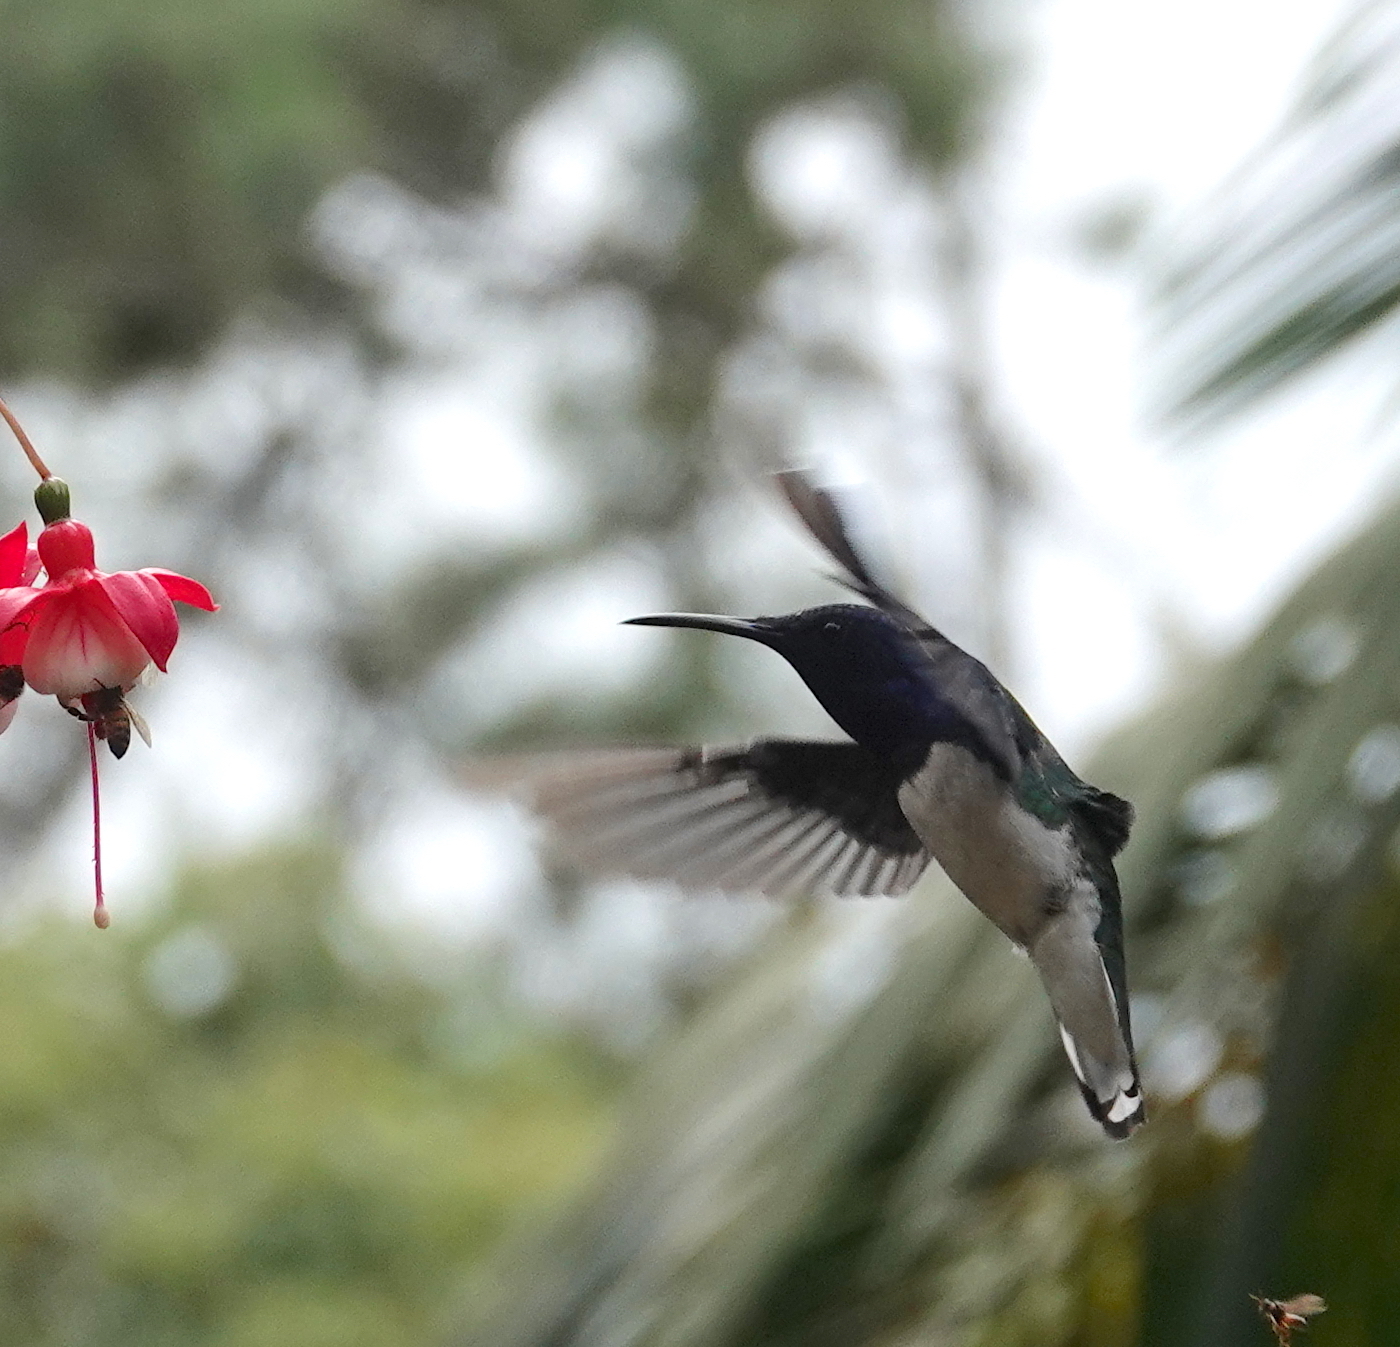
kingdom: Animalia
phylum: Chordata
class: Aves
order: Apodiformes
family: Trochilidae
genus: Florisuga
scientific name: Florisuga mellivora
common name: White-necked jacobin
